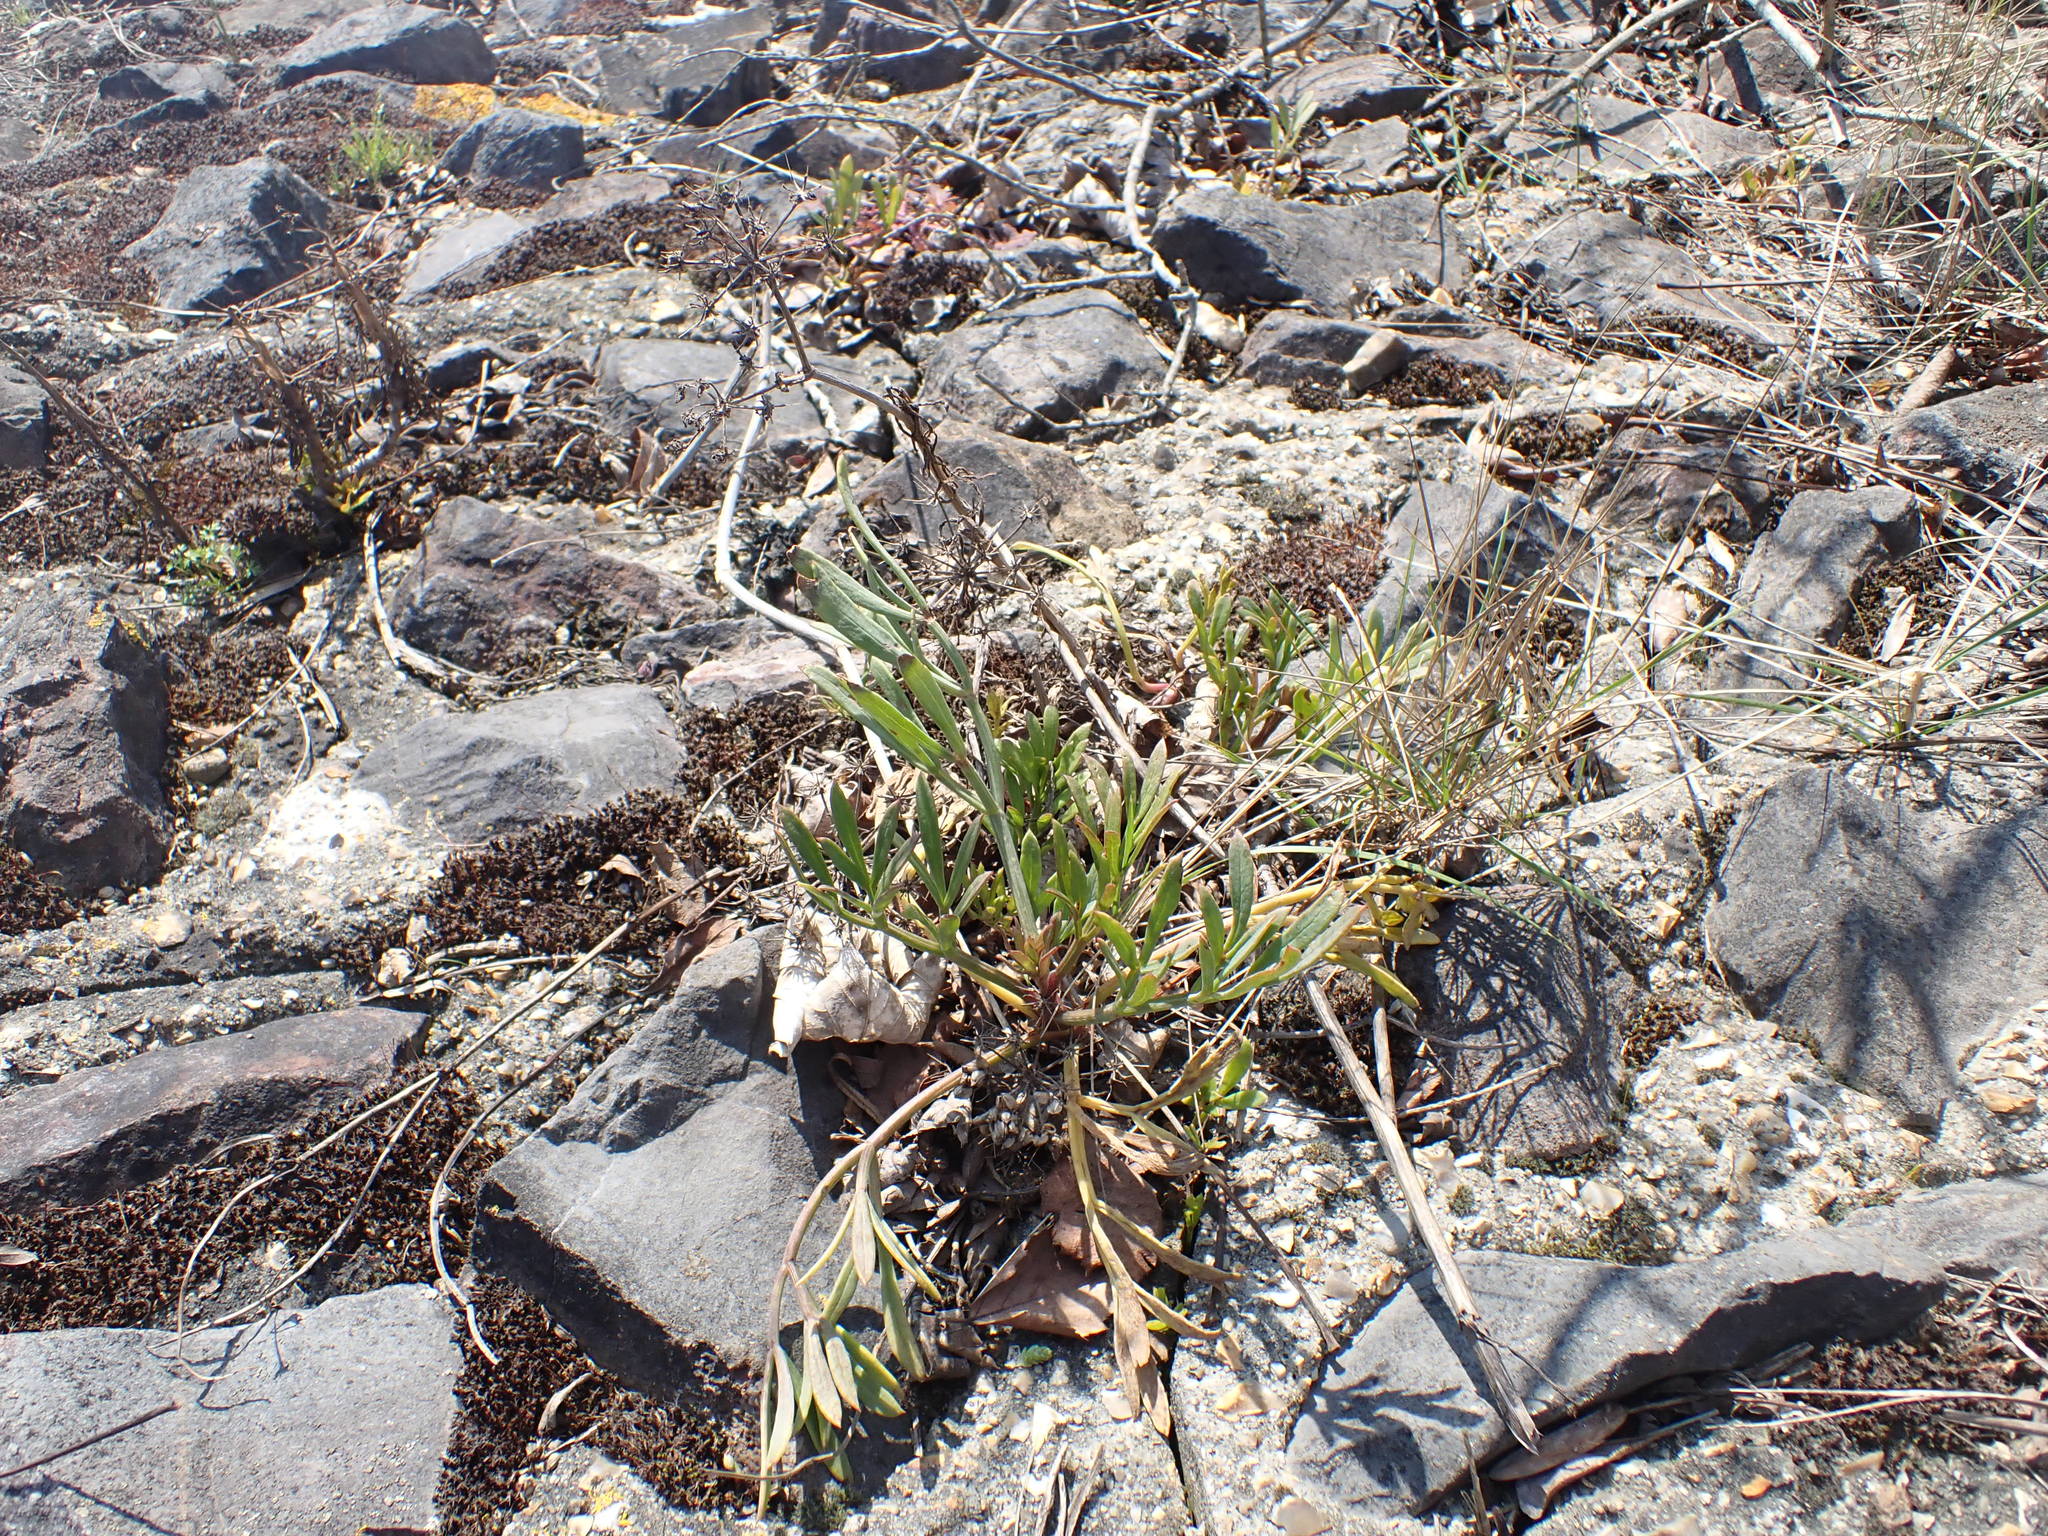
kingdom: Plantae
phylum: Tracheophyta
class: Magnoliopsida
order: Apiales
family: Apiaceae
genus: Crithmum
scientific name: Crithmum maritimum
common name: Rock samphire
